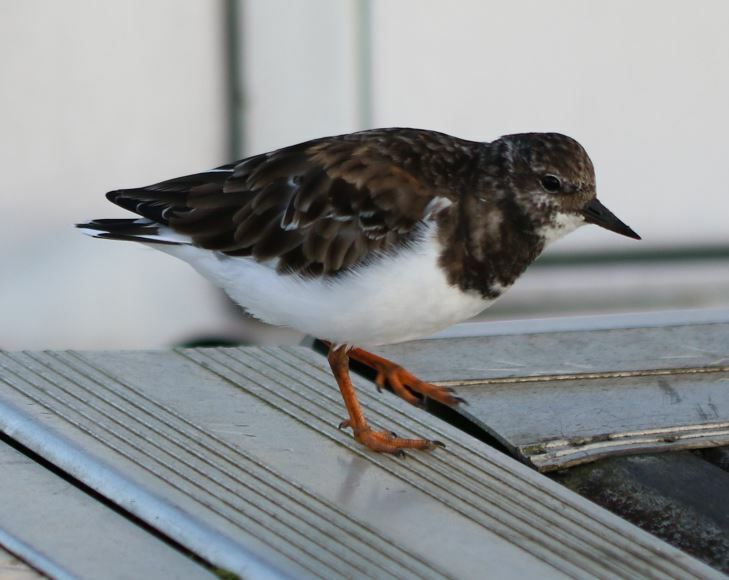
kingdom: Animalia
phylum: Chordata
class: Aves
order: Charadriiformes
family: Scolopacidae
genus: Arenaria
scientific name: Arenaria interpres
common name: Ruddy turnstone
